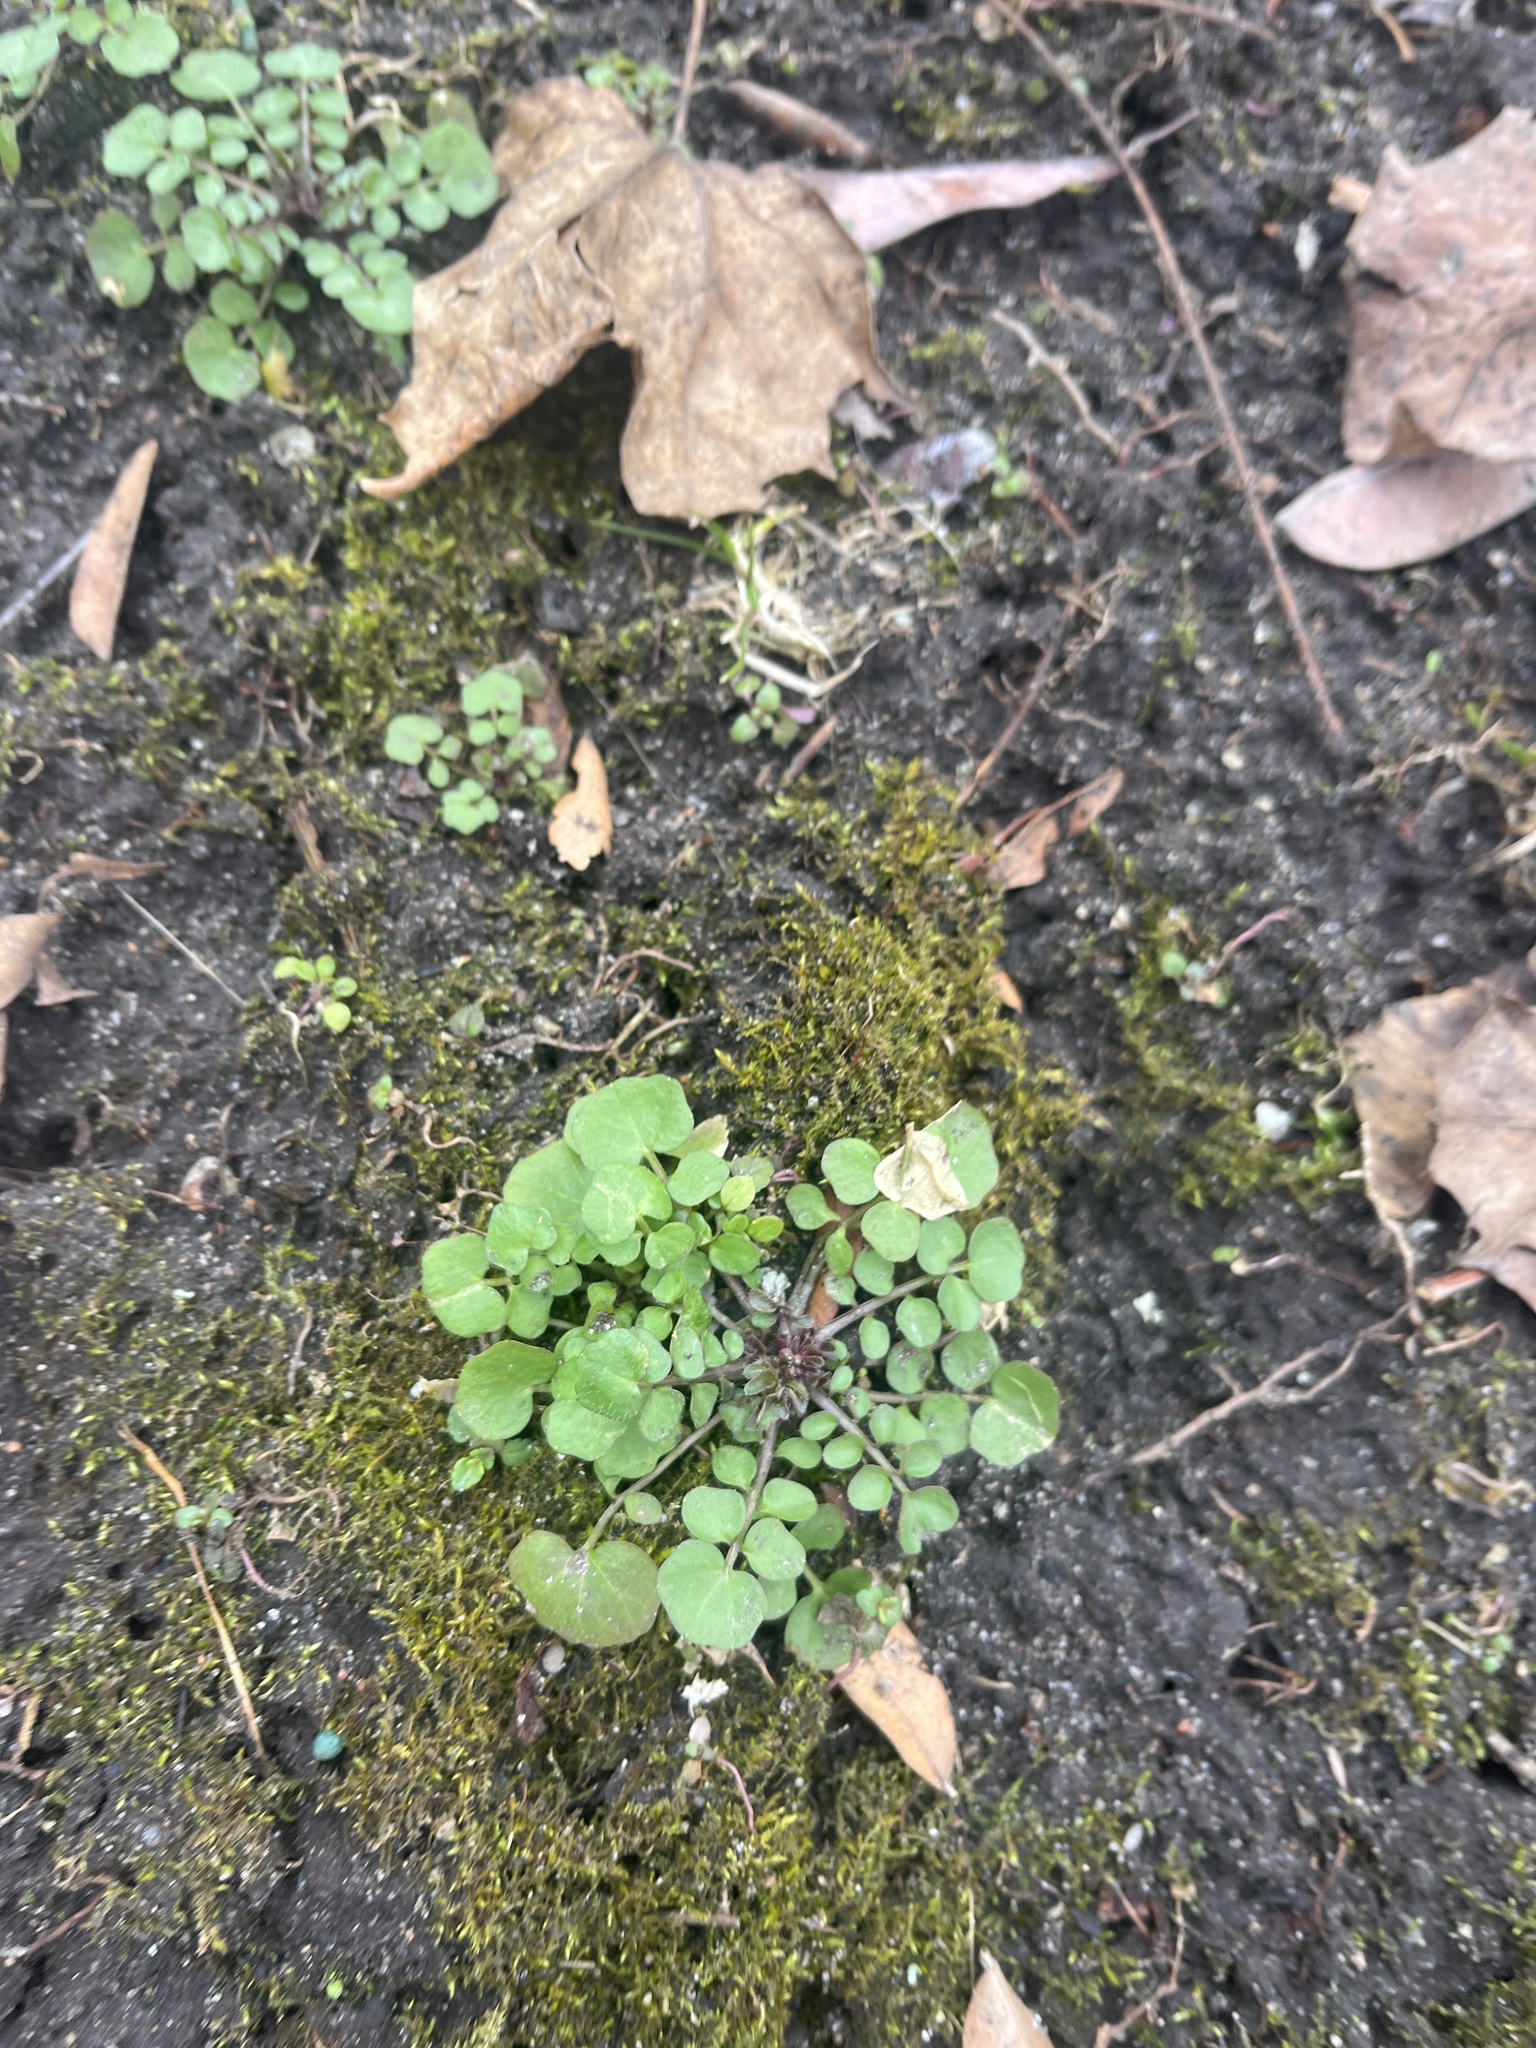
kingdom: Plantae
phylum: Tracheophyta
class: Magnoliopsida
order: Brassicales
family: Brassicaceae
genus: Cardamine
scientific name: Cardamine hirsuta
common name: Hairy bittercress
